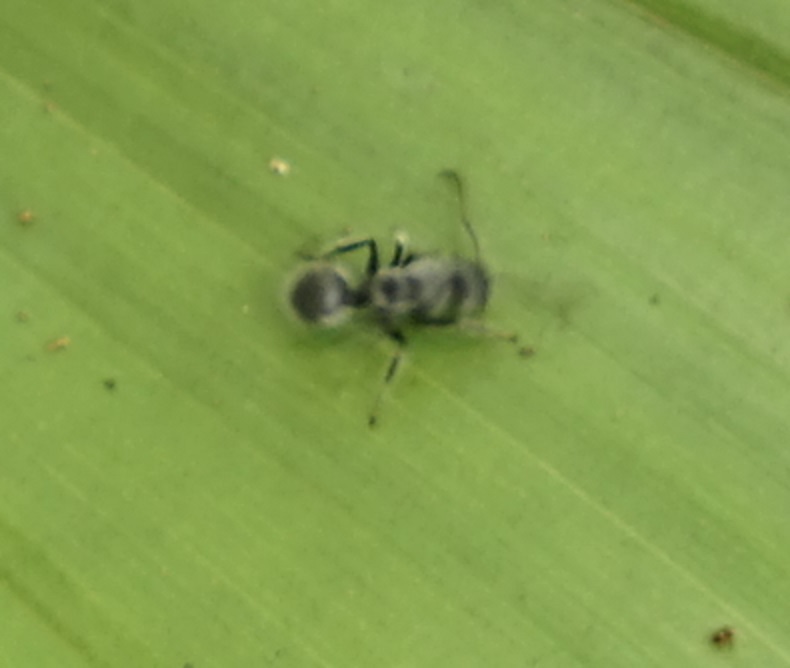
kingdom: Animalia
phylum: Arthropoda
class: Insecta
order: Hymenoptera
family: Formicidae
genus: Echinopla
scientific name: Echinopla lineata
